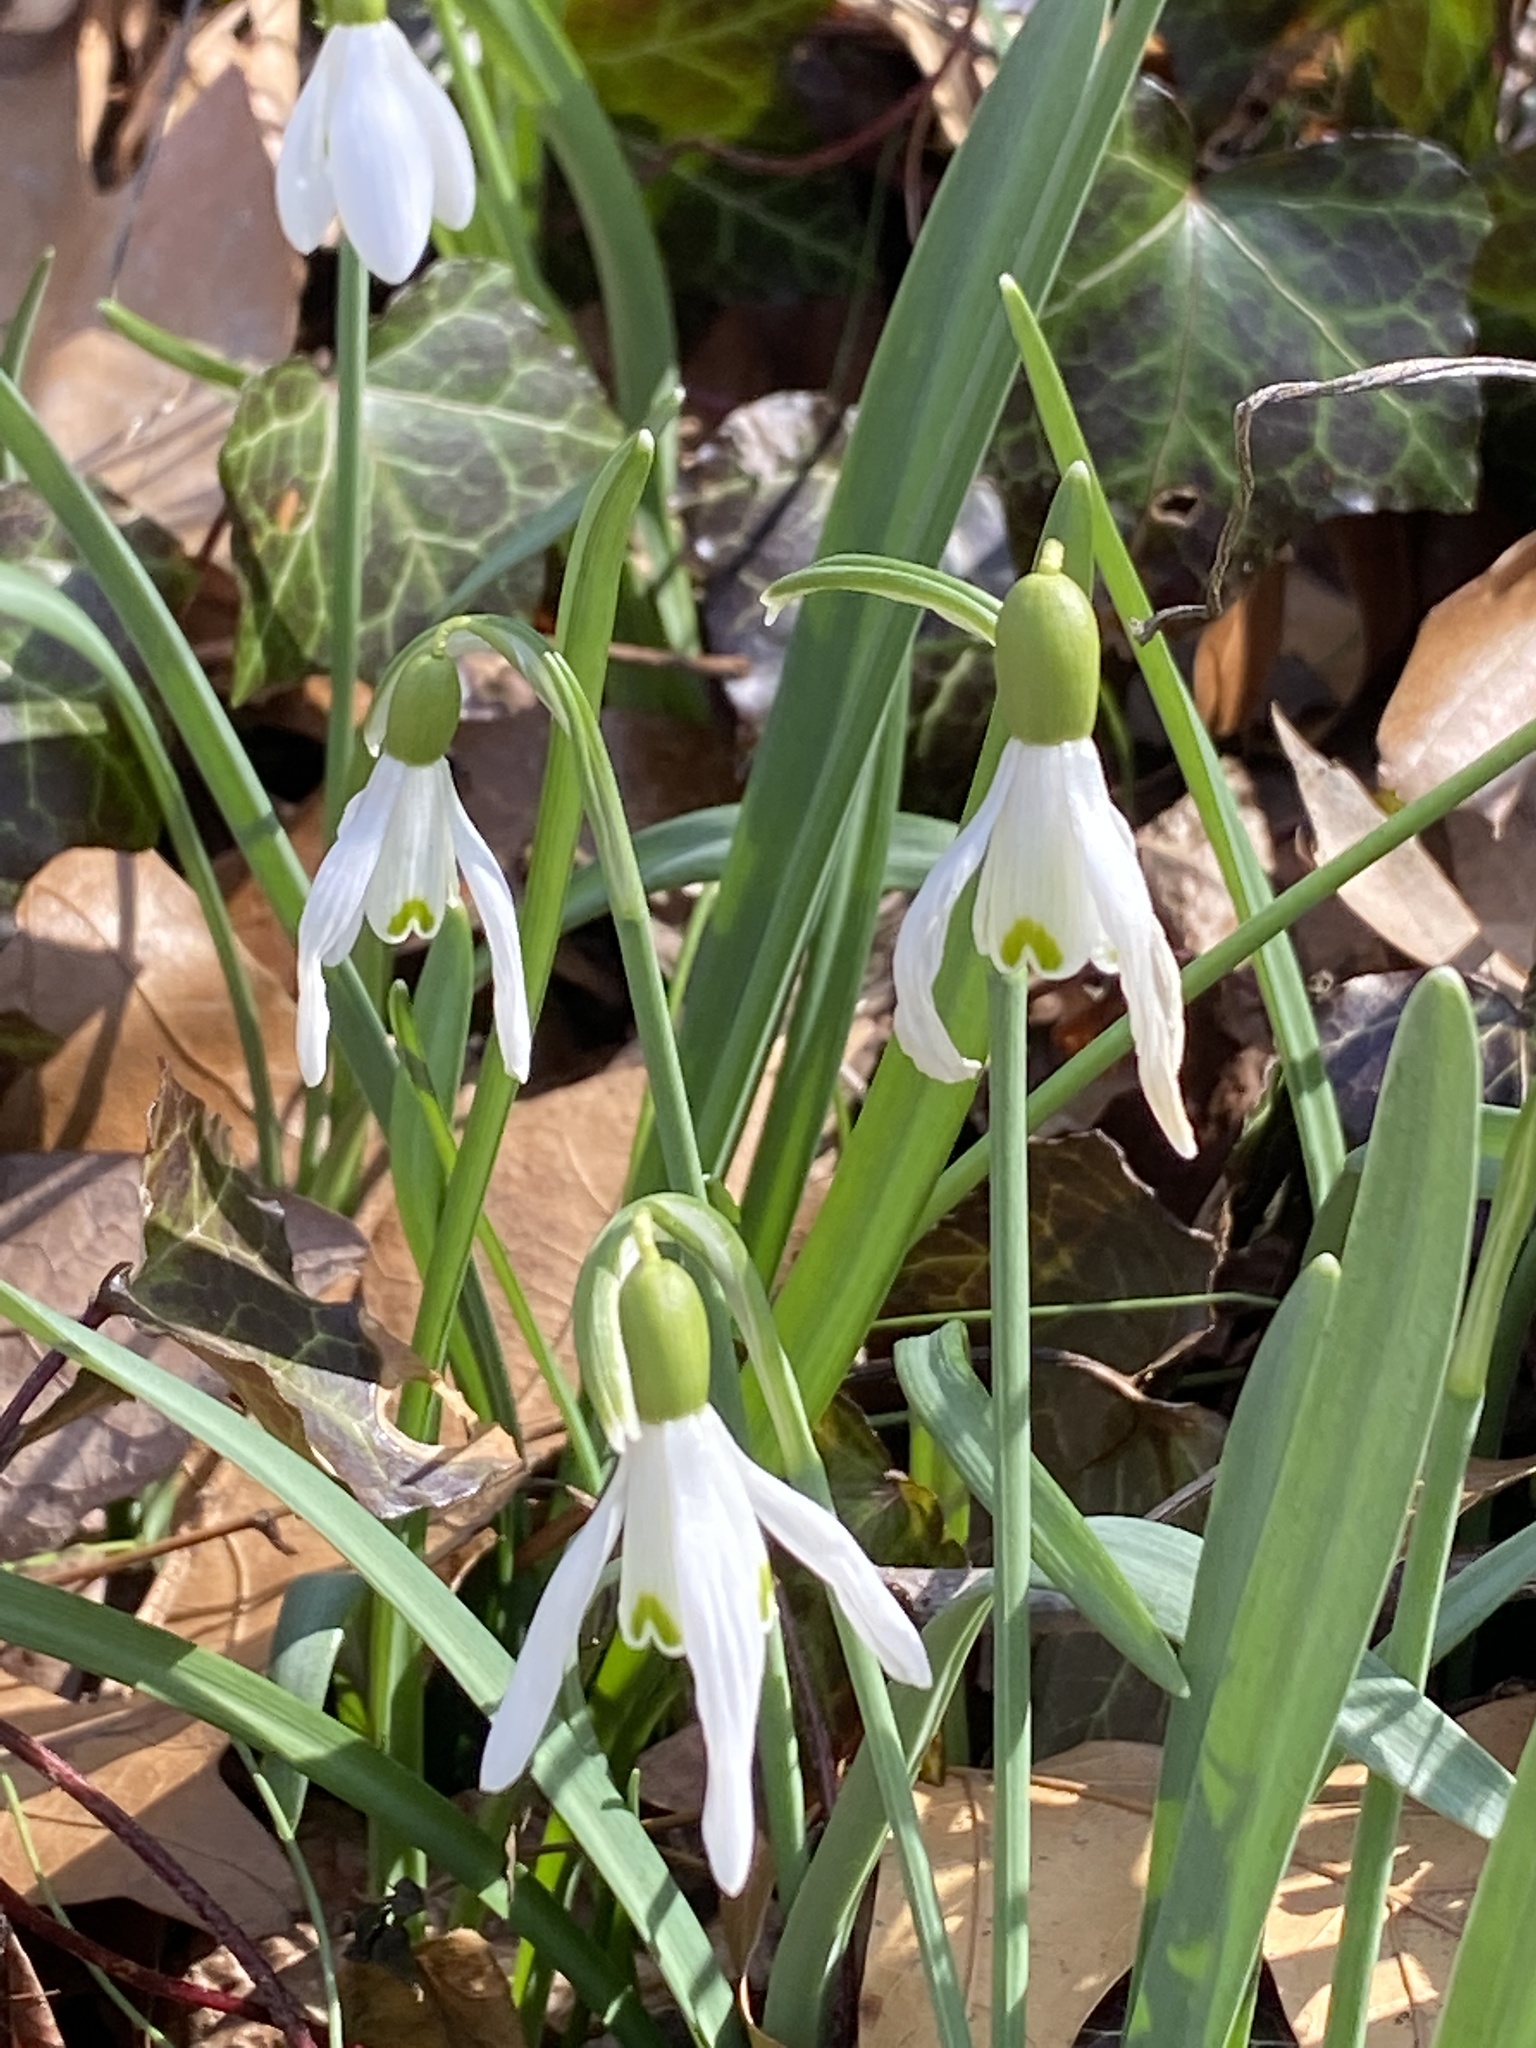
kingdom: Plantae
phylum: Tracheophyta
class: Liliopsida
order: Asparagales
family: Amaryllidaceae
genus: Galanthus
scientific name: Galanthus nivalis
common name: Snowdrop
